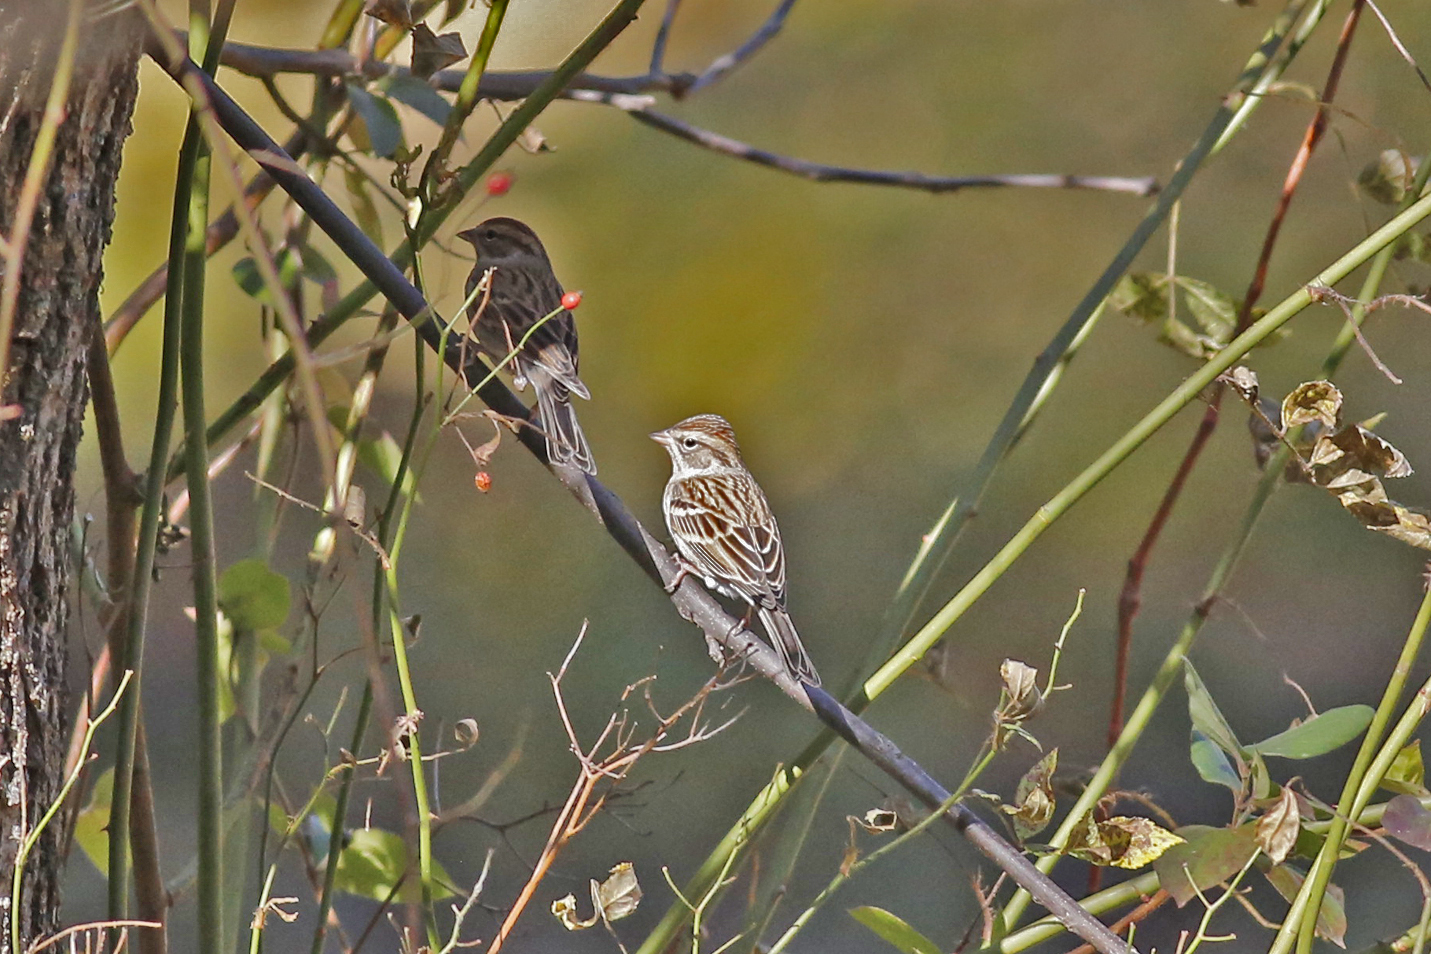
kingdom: Animalia
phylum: Chordata
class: Aves
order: Passeriformes
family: Passerellidae
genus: Spizella
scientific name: Spizella passerina
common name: Chipping sparrow
